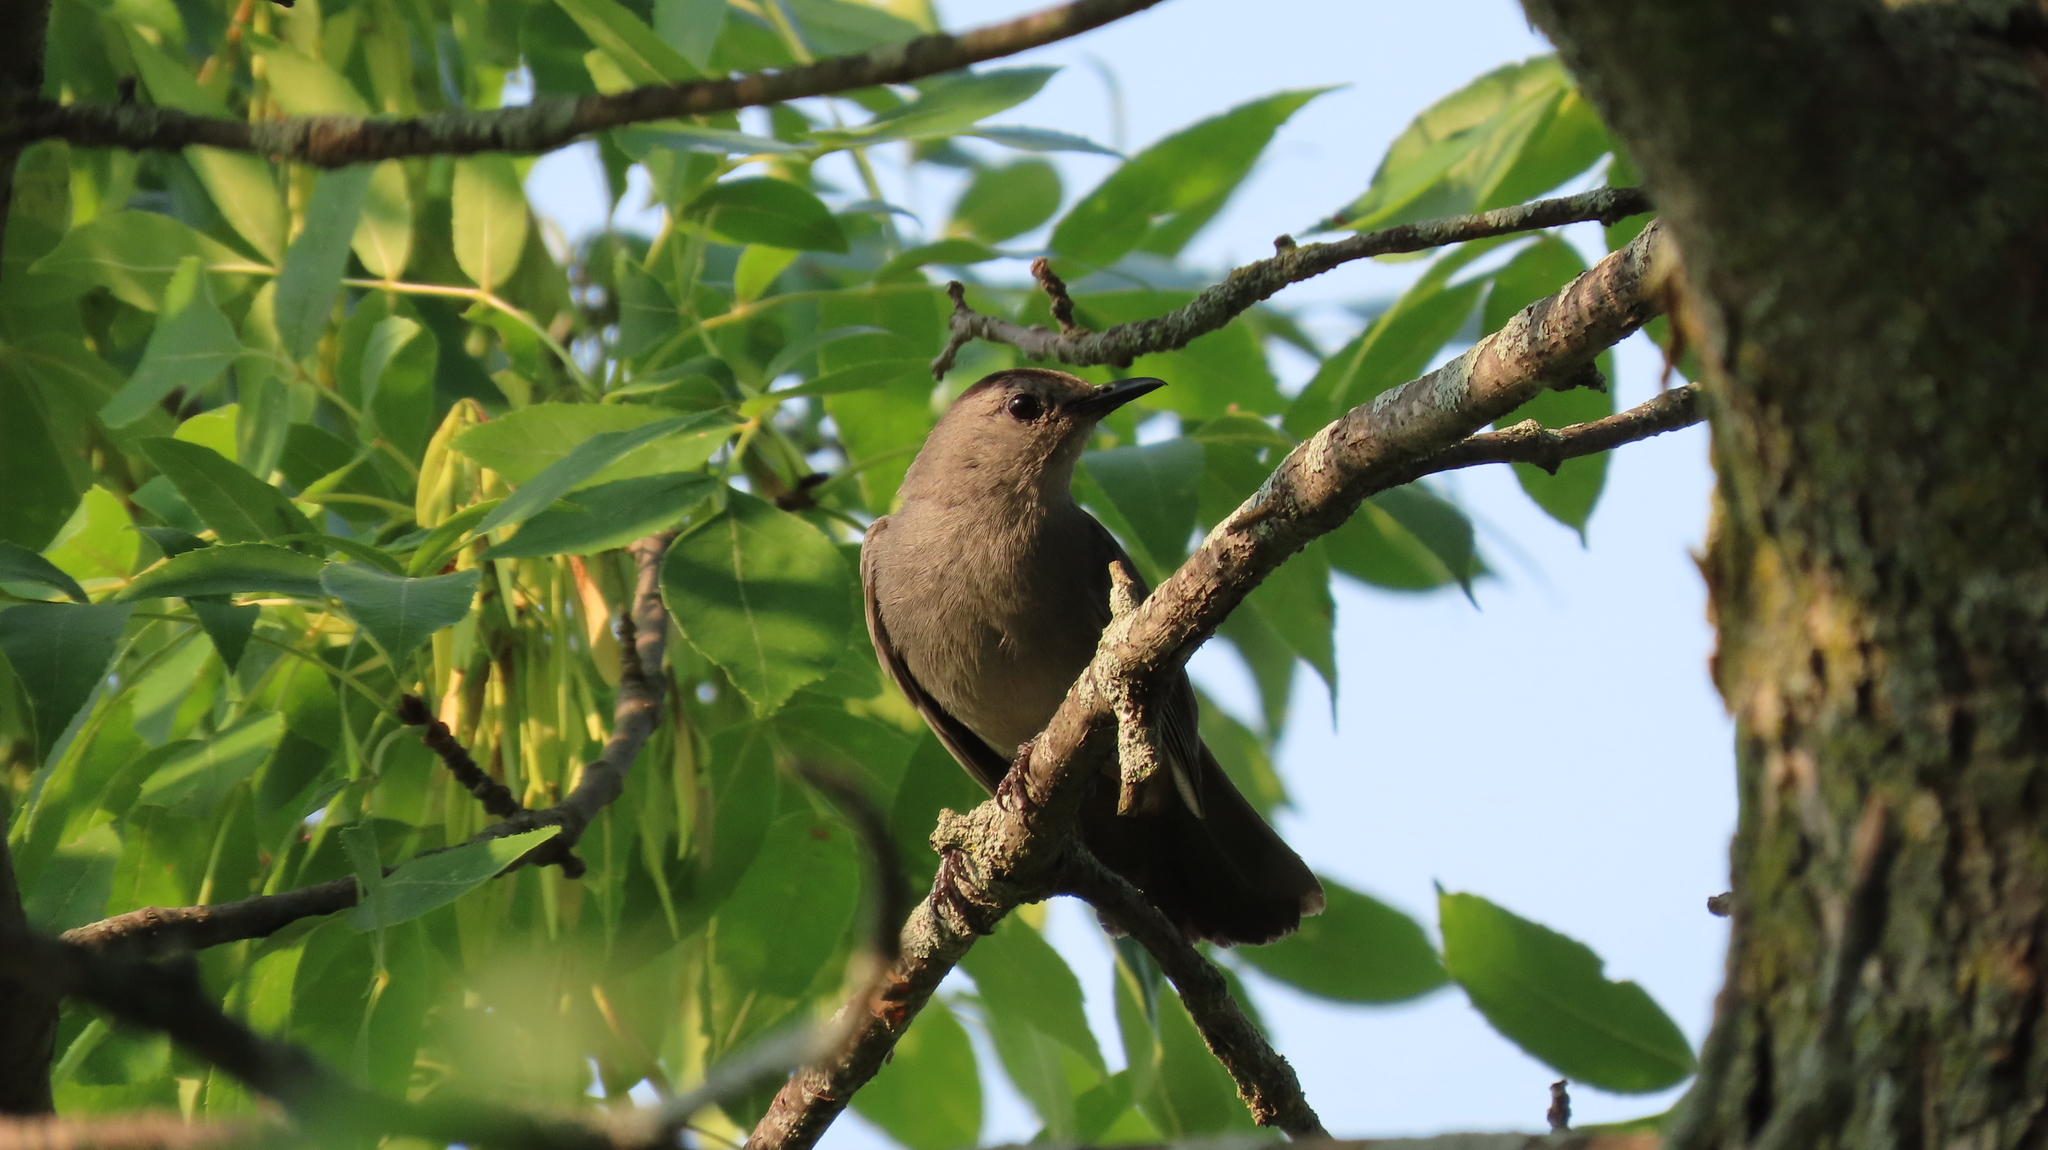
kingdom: Animalia
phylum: Chordata
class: Aves
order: Passeriformes
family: Mimidae
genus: Dumetella
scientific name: Dumetella carolinensis
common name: Gray catbird
